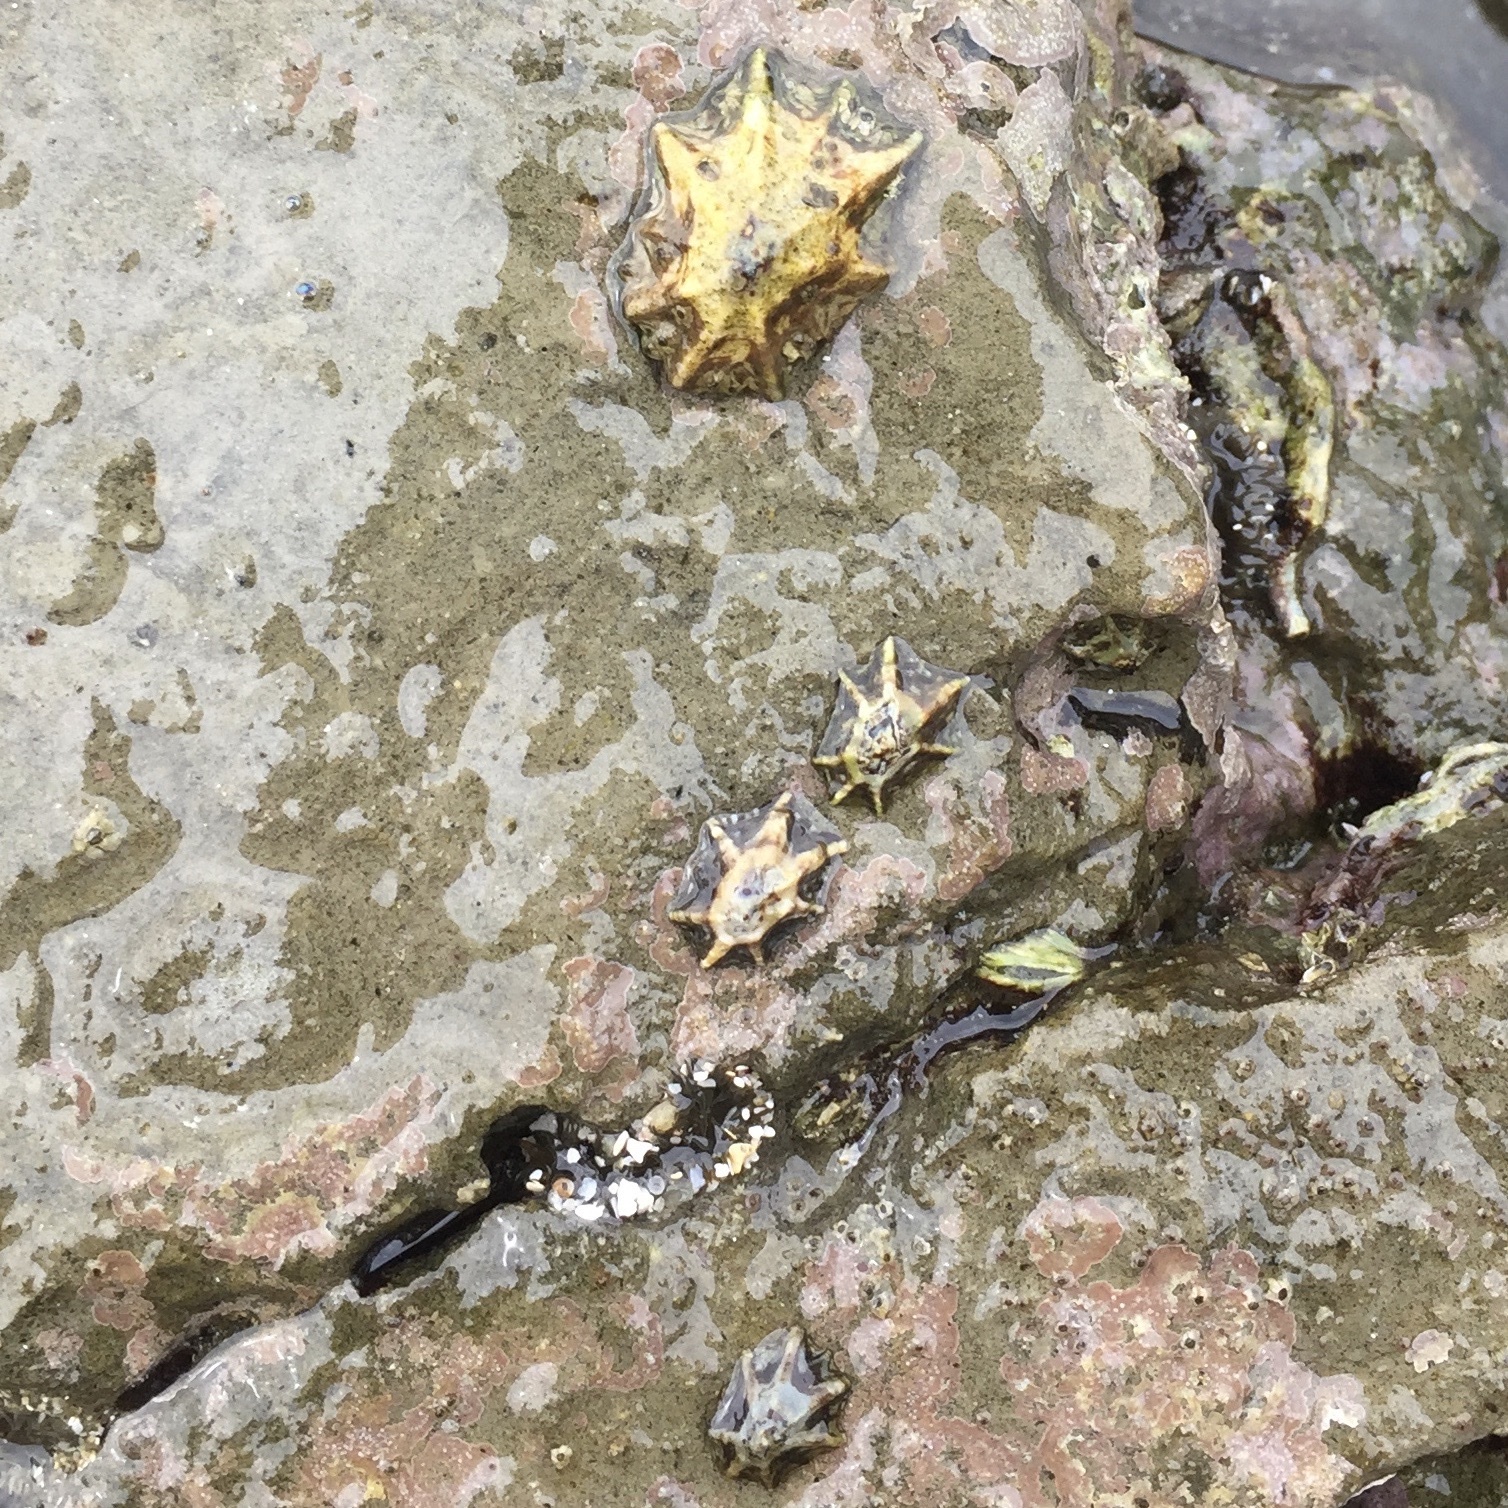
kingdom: Animalia
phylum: Mollusca
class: Gastropoda
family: Lottiidae
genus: Patelloida
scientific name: Patelloida saccharina
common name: Pacific sugar limpet
